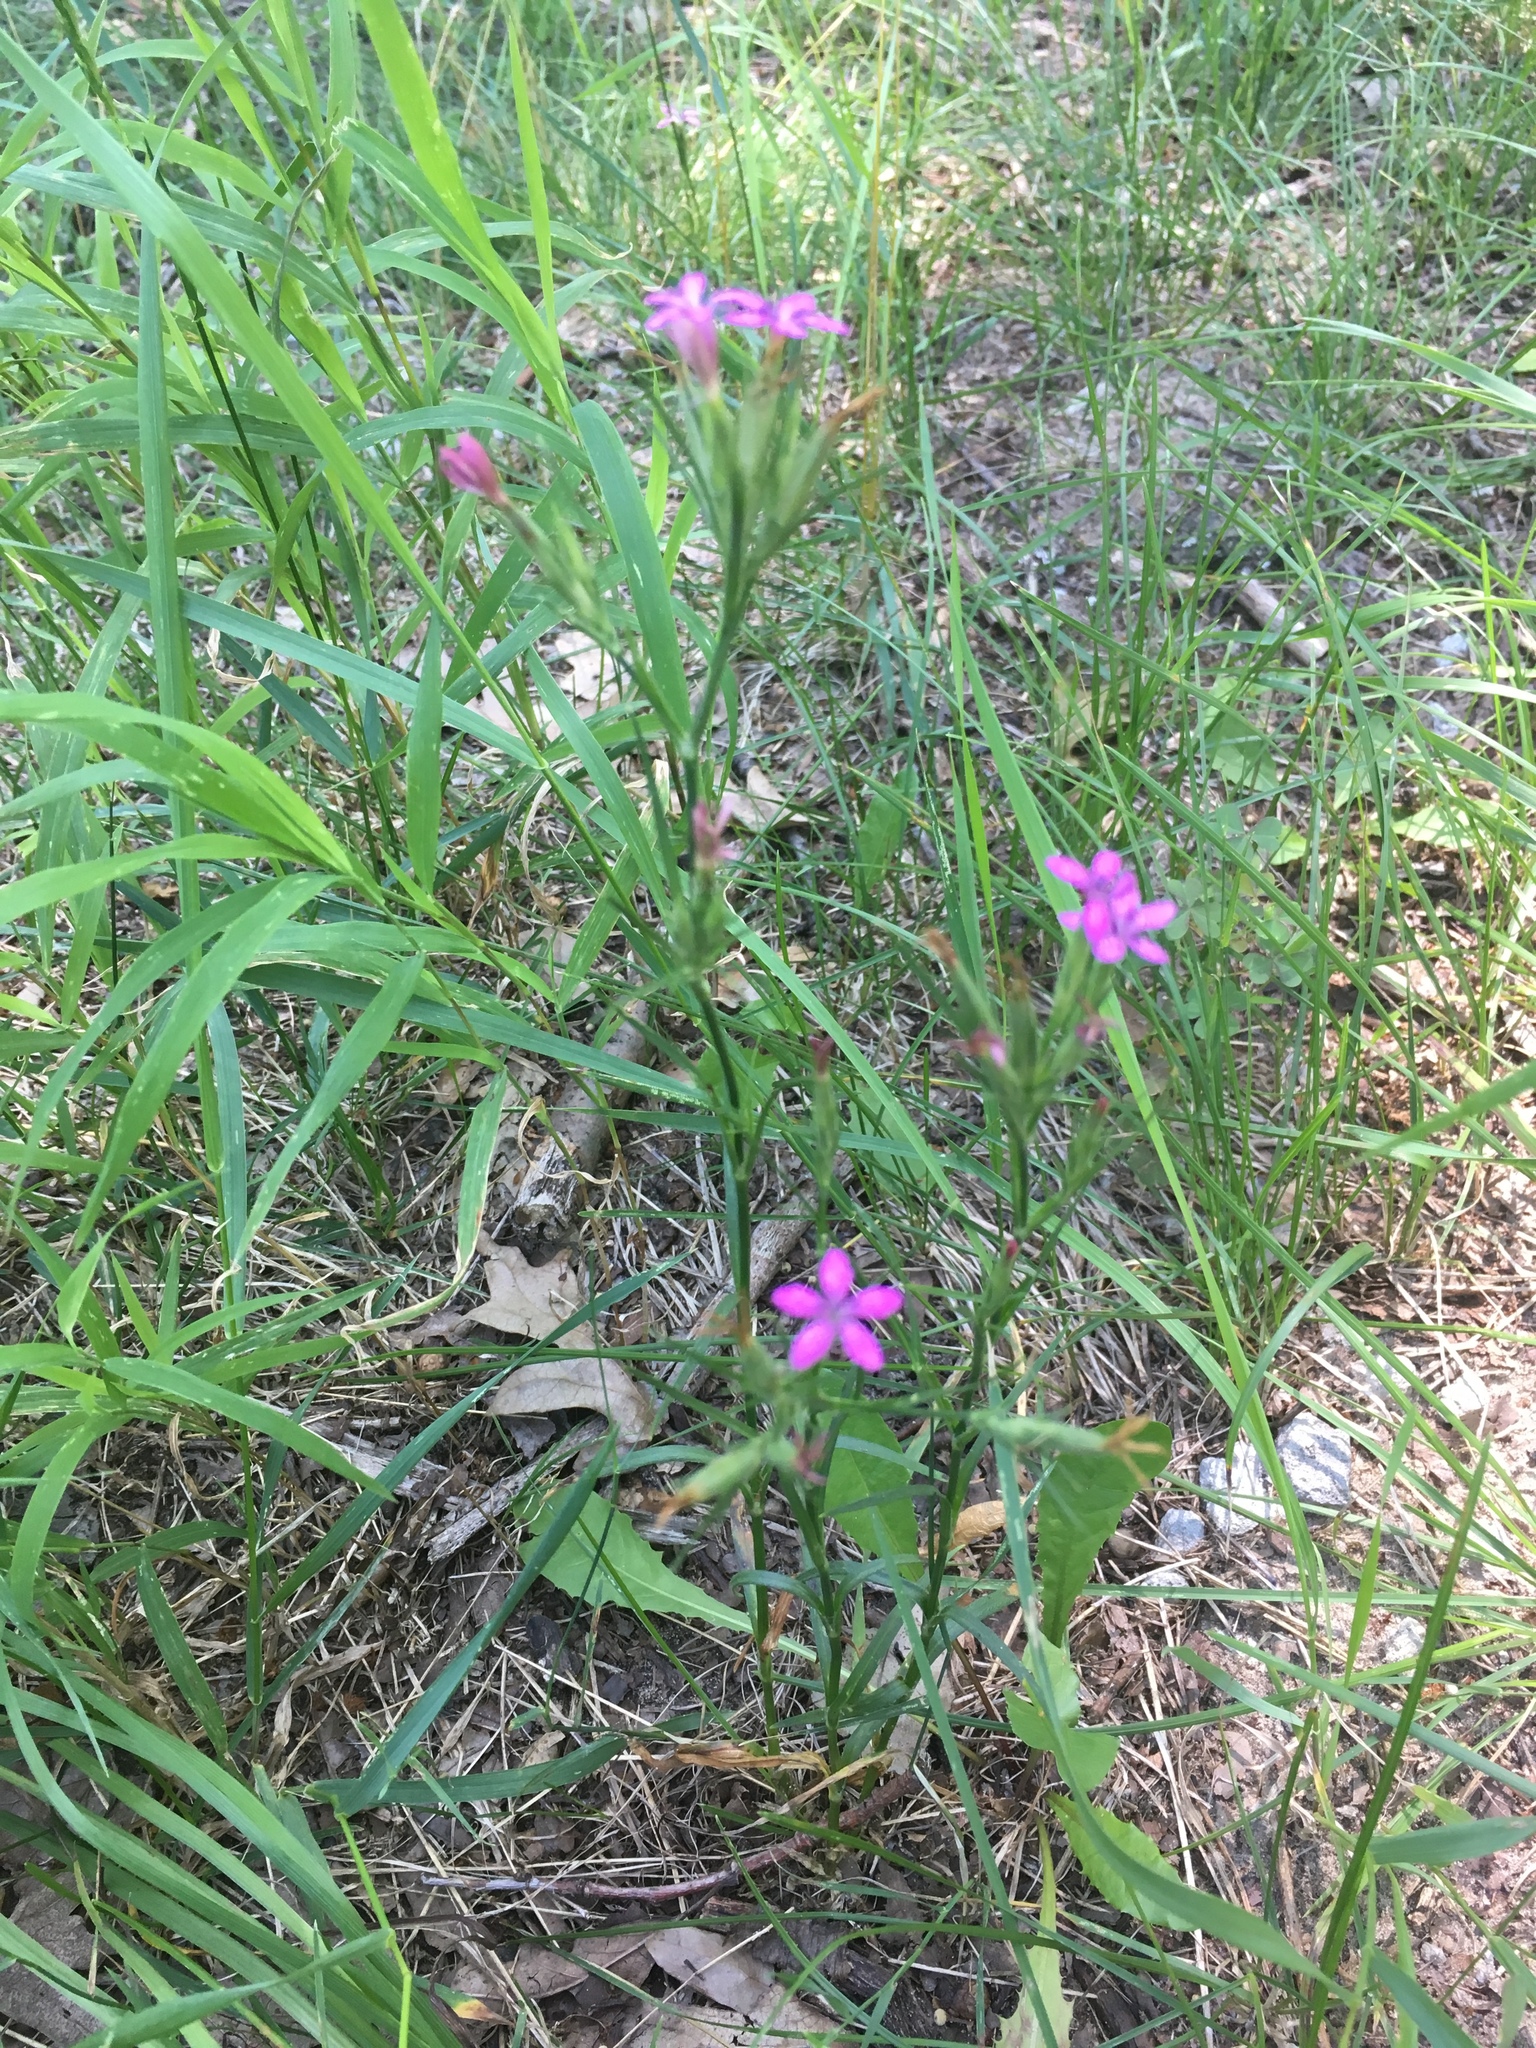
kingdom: Plantae
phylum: Tracheophyta
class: Magnoliopsida
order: Caryophyllales
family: Caryophyllaceae
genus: Dianthus
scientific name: Dianthus armeria
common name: Deptford pink
